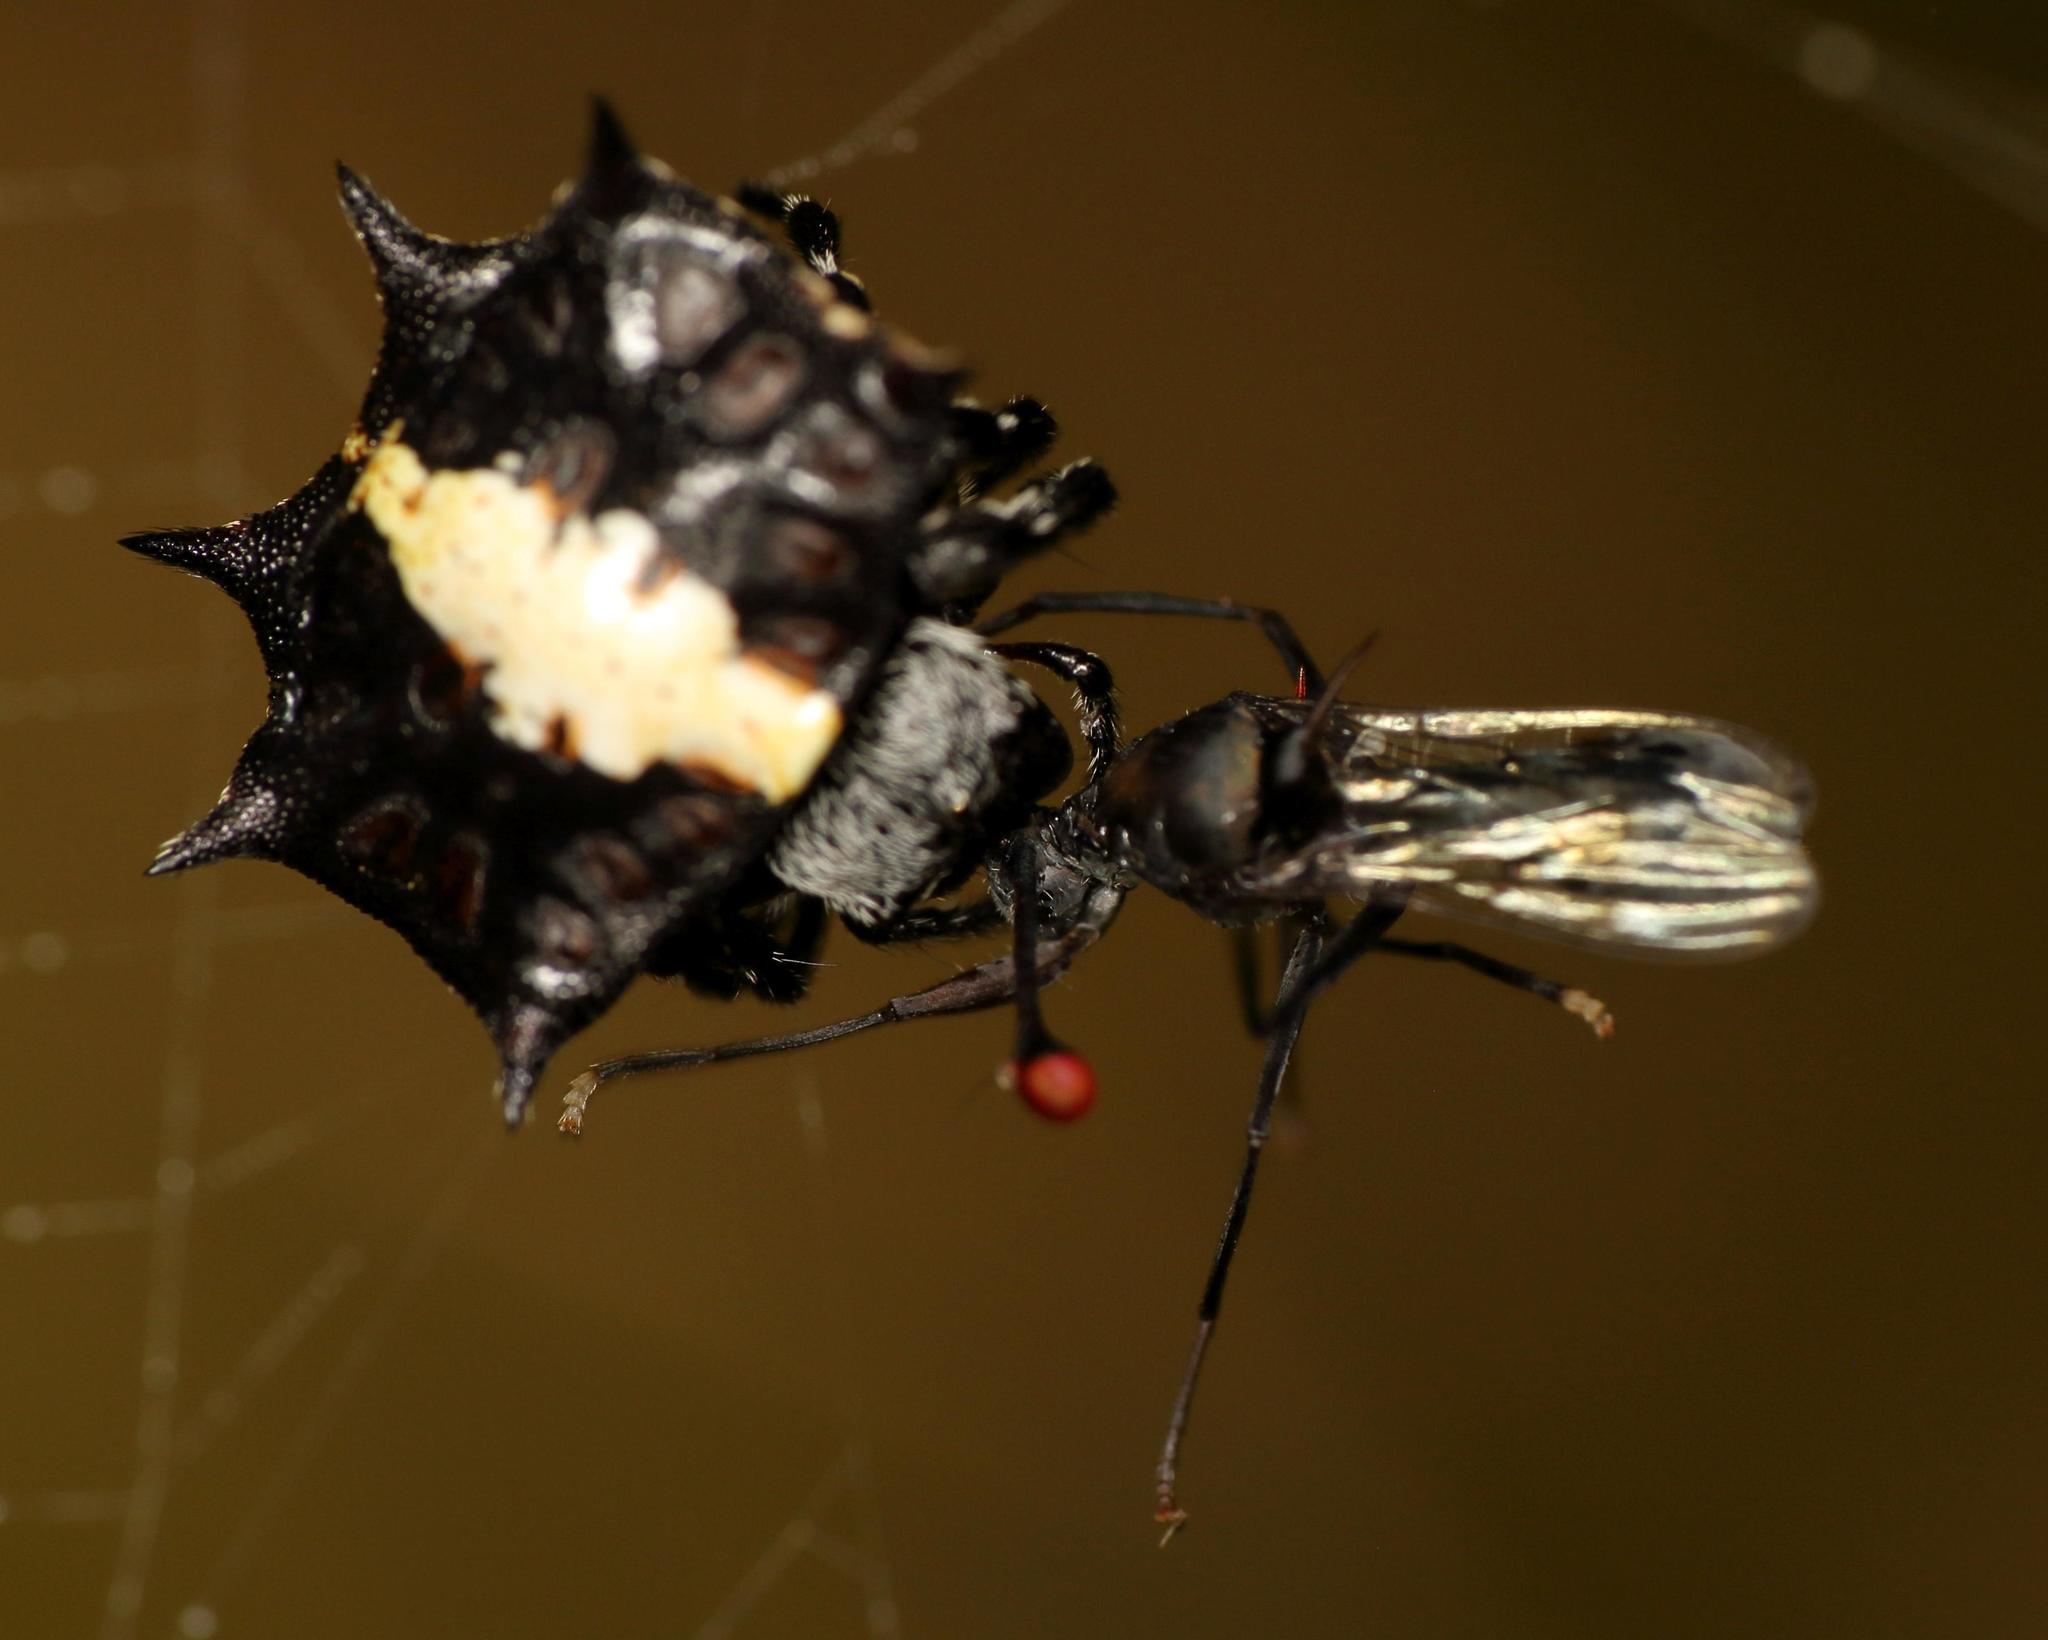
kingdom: Animalia
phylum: Arthropoda
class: Arachnida
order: Araneae
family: Araneidae
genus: Isoxya
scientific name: Isoxya tabulata
